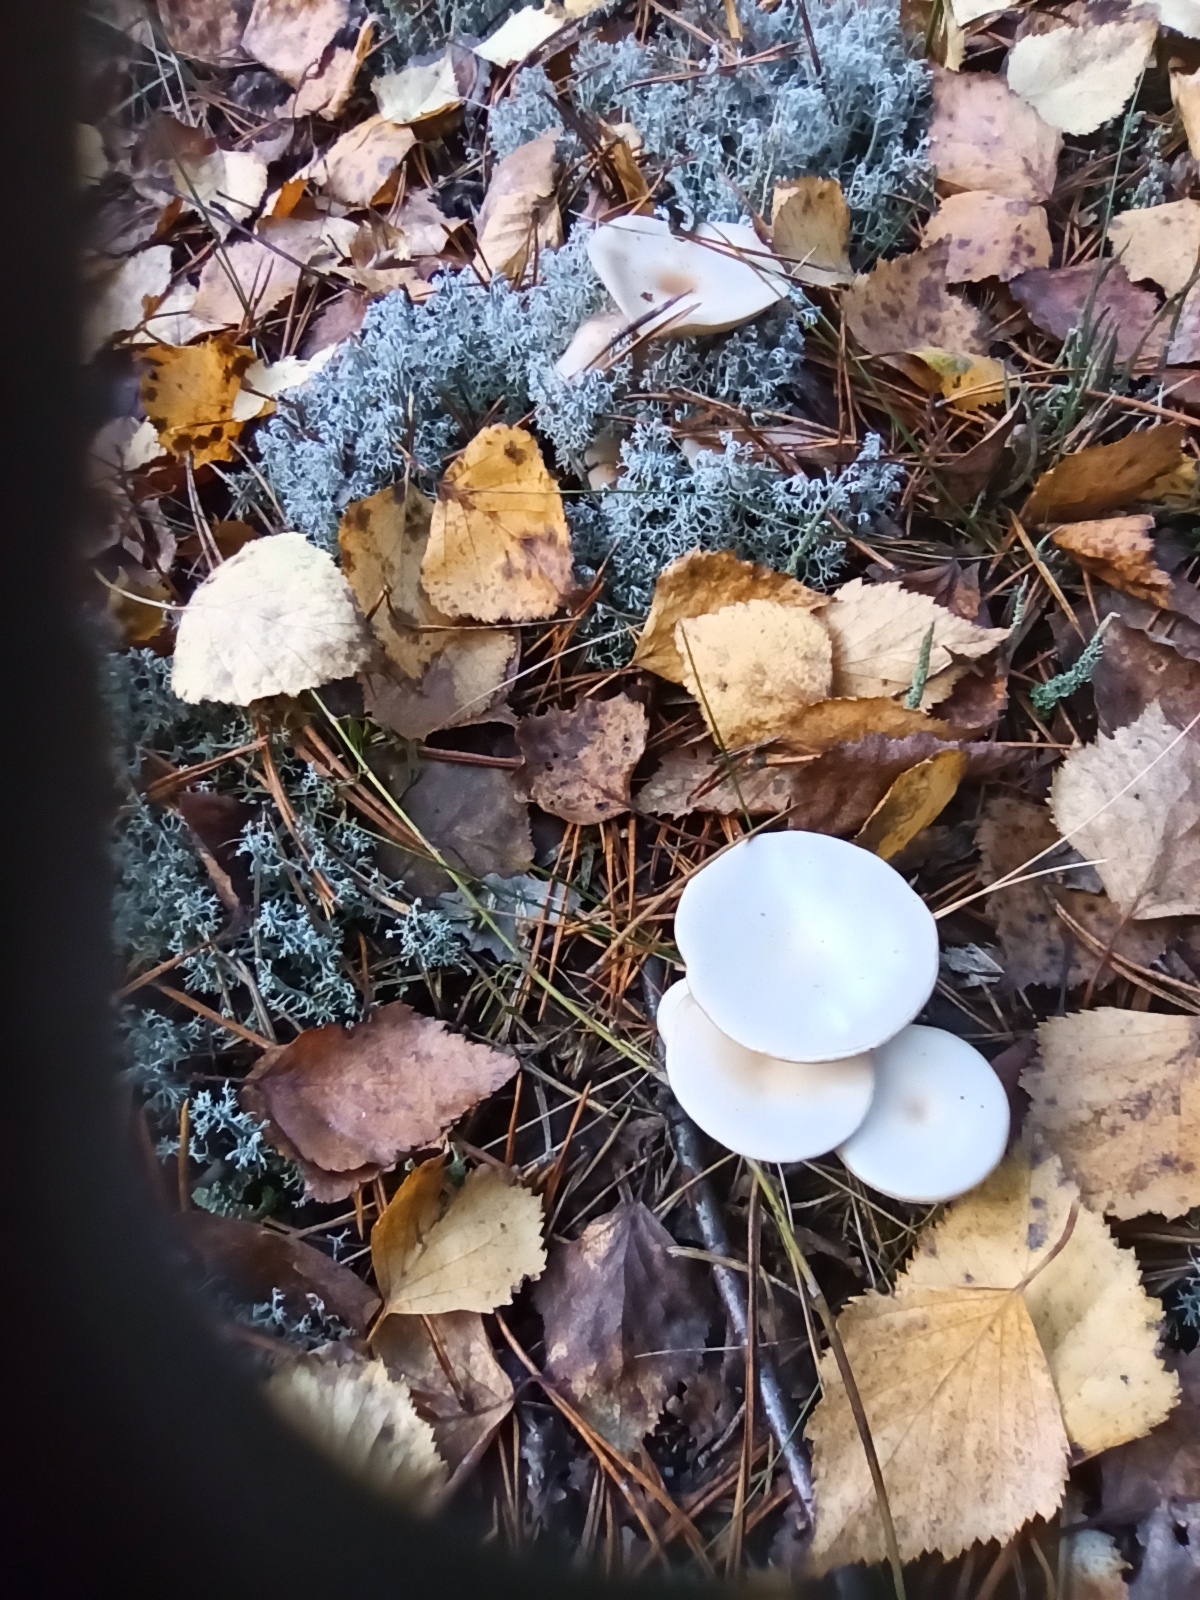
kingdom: Fungi
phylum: Basidiomycota
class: Agaricomycetes
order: Agaricales
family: Tricholomataceae
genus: Clitocybe
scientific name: Clitocybe fragrans
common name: Fragrant funnel
